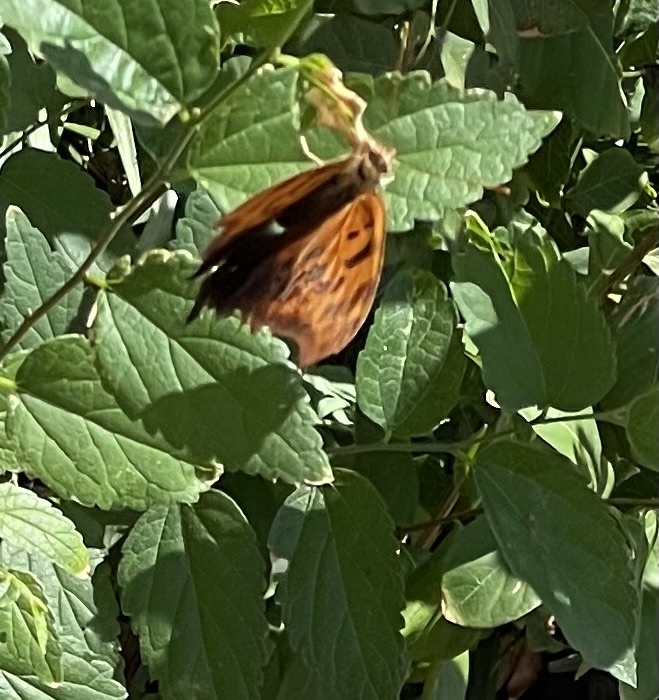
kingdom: Animalia
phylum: Arthropoda
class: Insecta
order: Lepidoptera
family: Nymphalidae
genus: Polygonia
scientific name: Polygonia interrogationis
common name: Question mark
